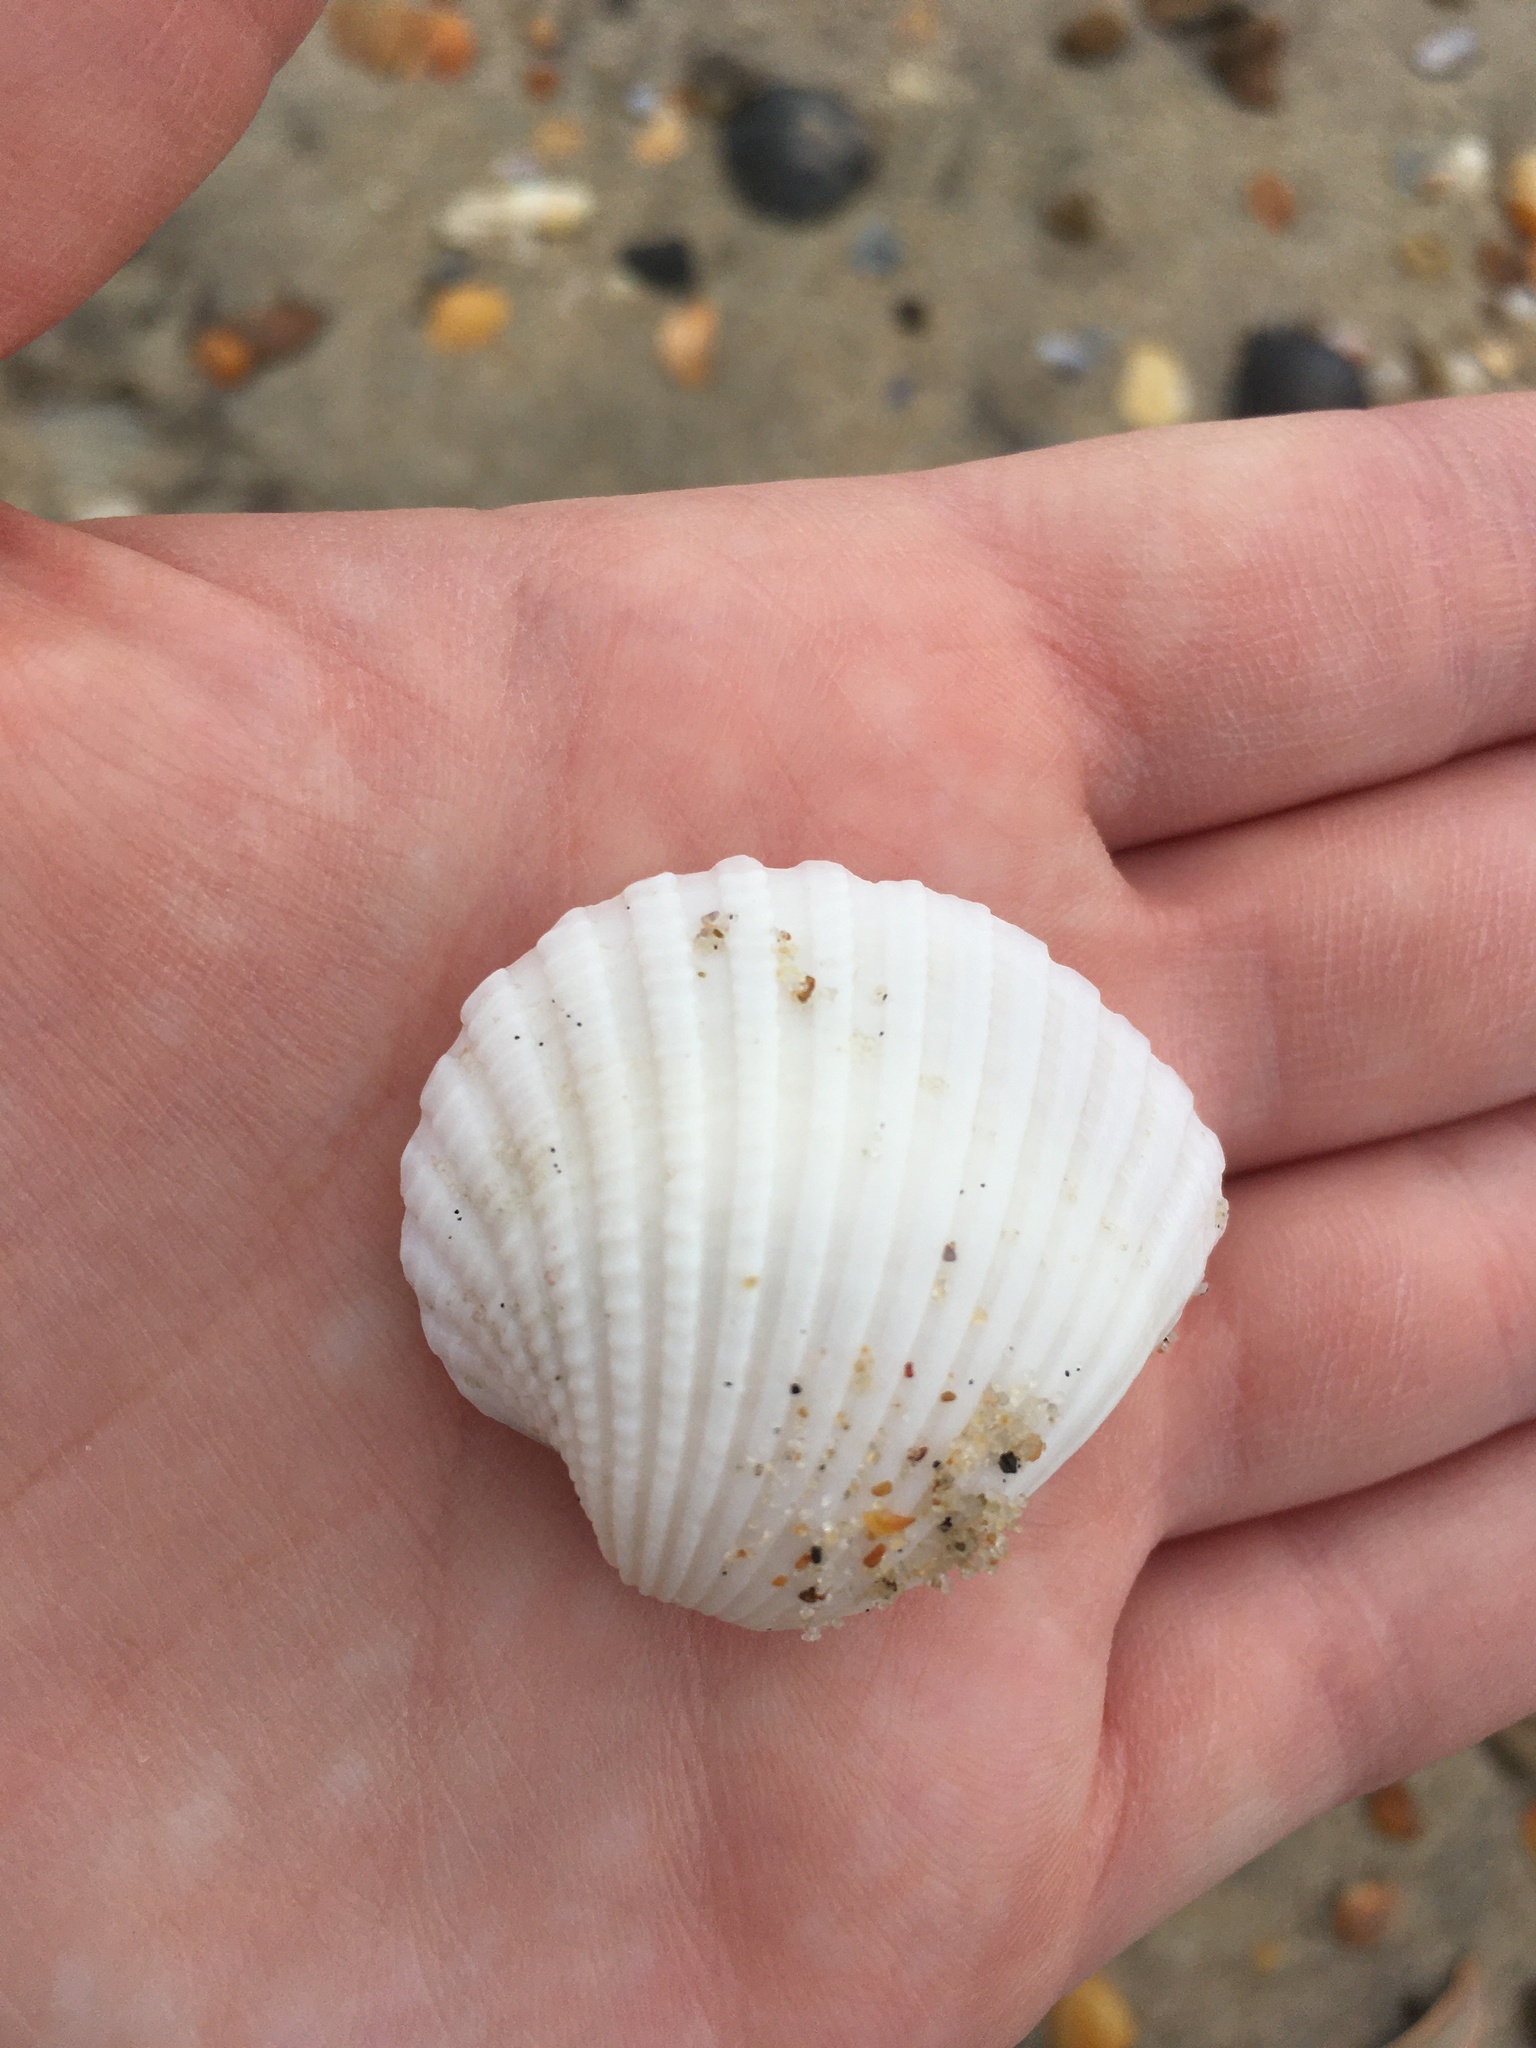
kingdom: Animalia
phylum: Mollusca
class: Bivalvia
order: Arcida
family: Arcidae
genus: Anadara
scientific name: Anadara brasiliana
